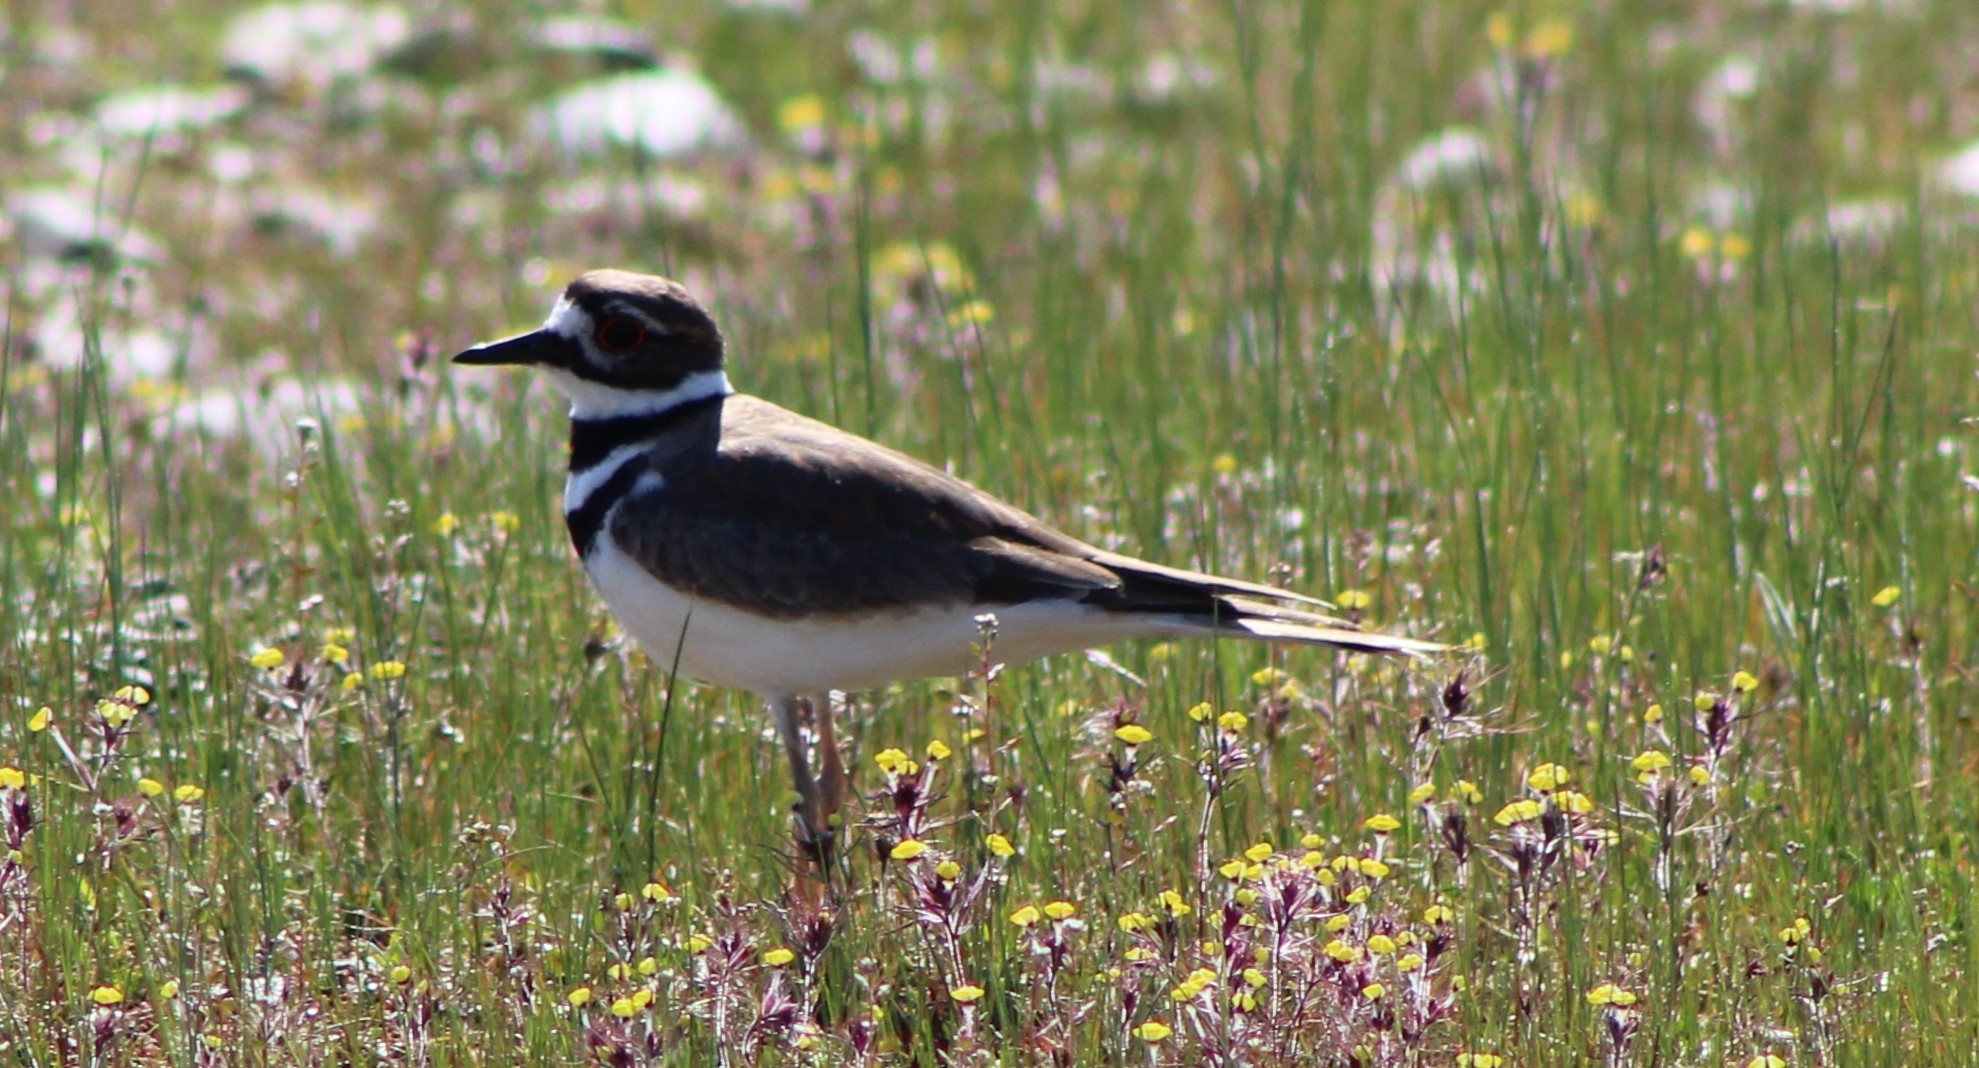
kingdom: Animalia
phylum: Chordata
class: Aves
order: Charadriiformes
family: Charadriidae
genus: Charadrius
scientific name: Charadrius vociferus
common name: Killdeer
